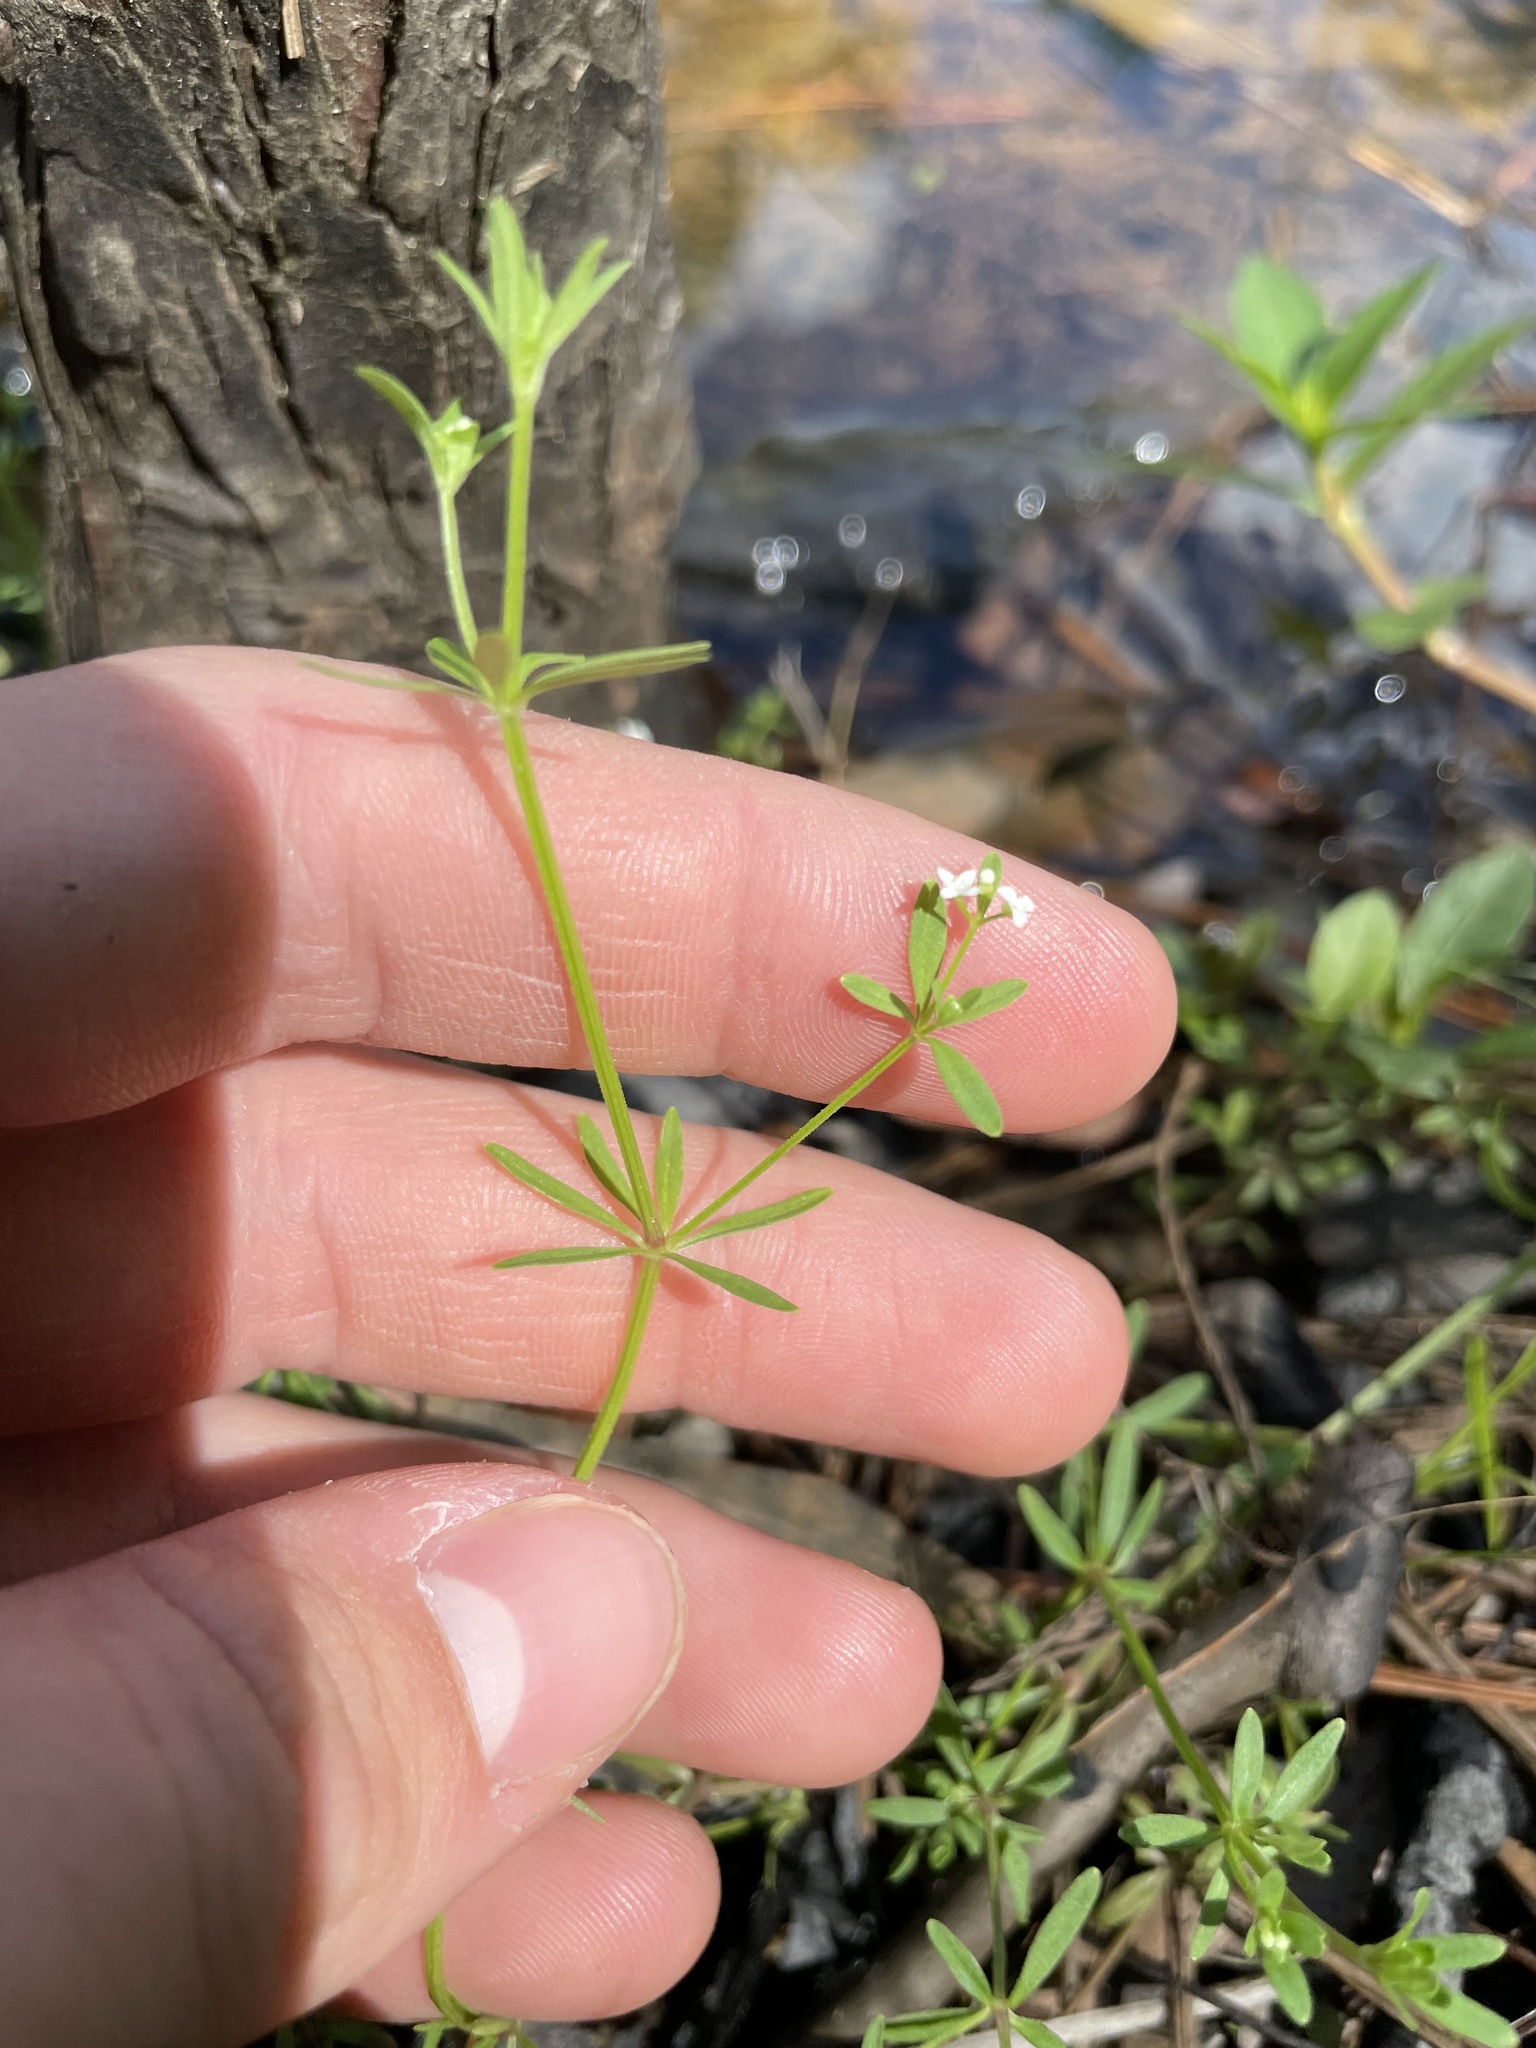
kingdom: Plantae
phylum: Tracheophyta
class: Magnoliopsida
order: Gentianales
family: Rubiaceae
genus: Galium
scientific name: Galium tinctorium
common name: Bedstraw
